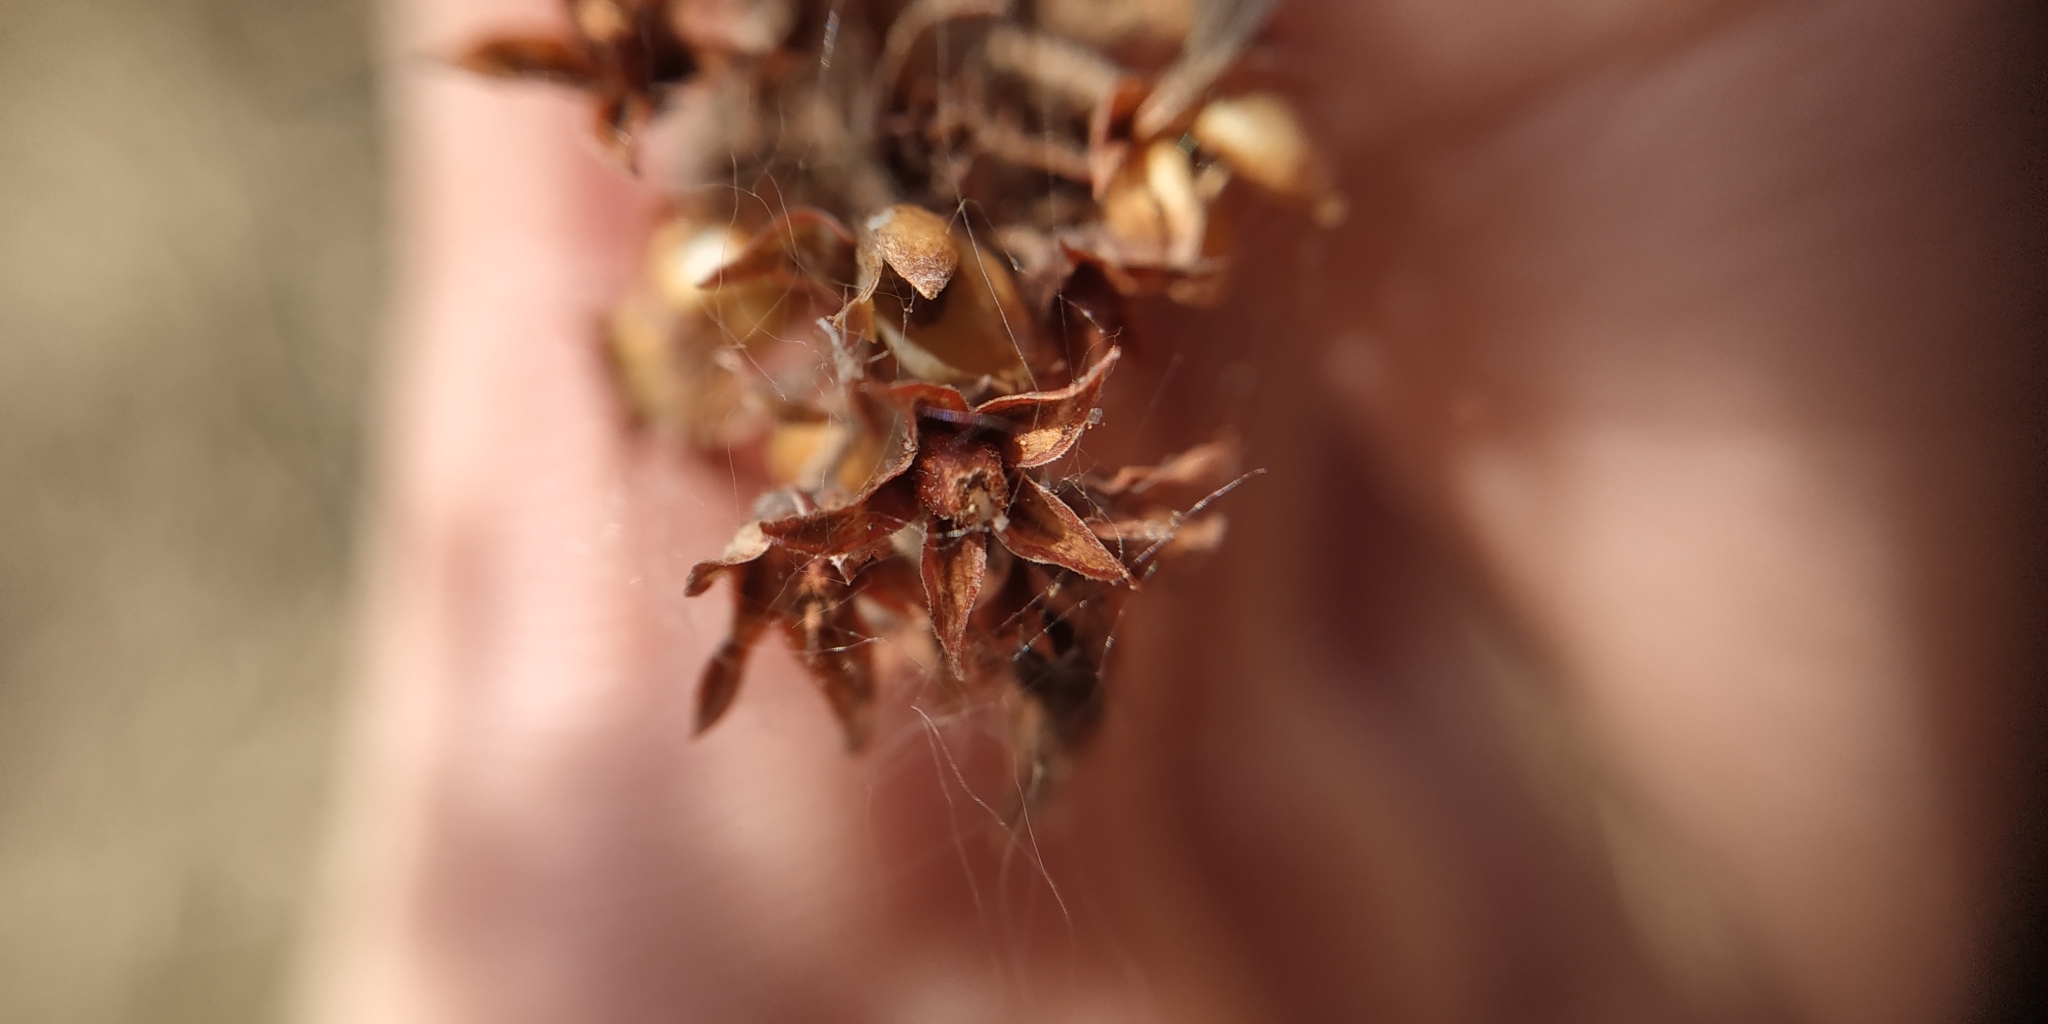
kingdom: Plantae
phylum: Tracheophyta
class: Magnoliopsida
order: Ericales
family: Primulaceae
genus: Lysimachia
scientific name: Lysimachia vulgaris
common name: Yellow loosestrife
